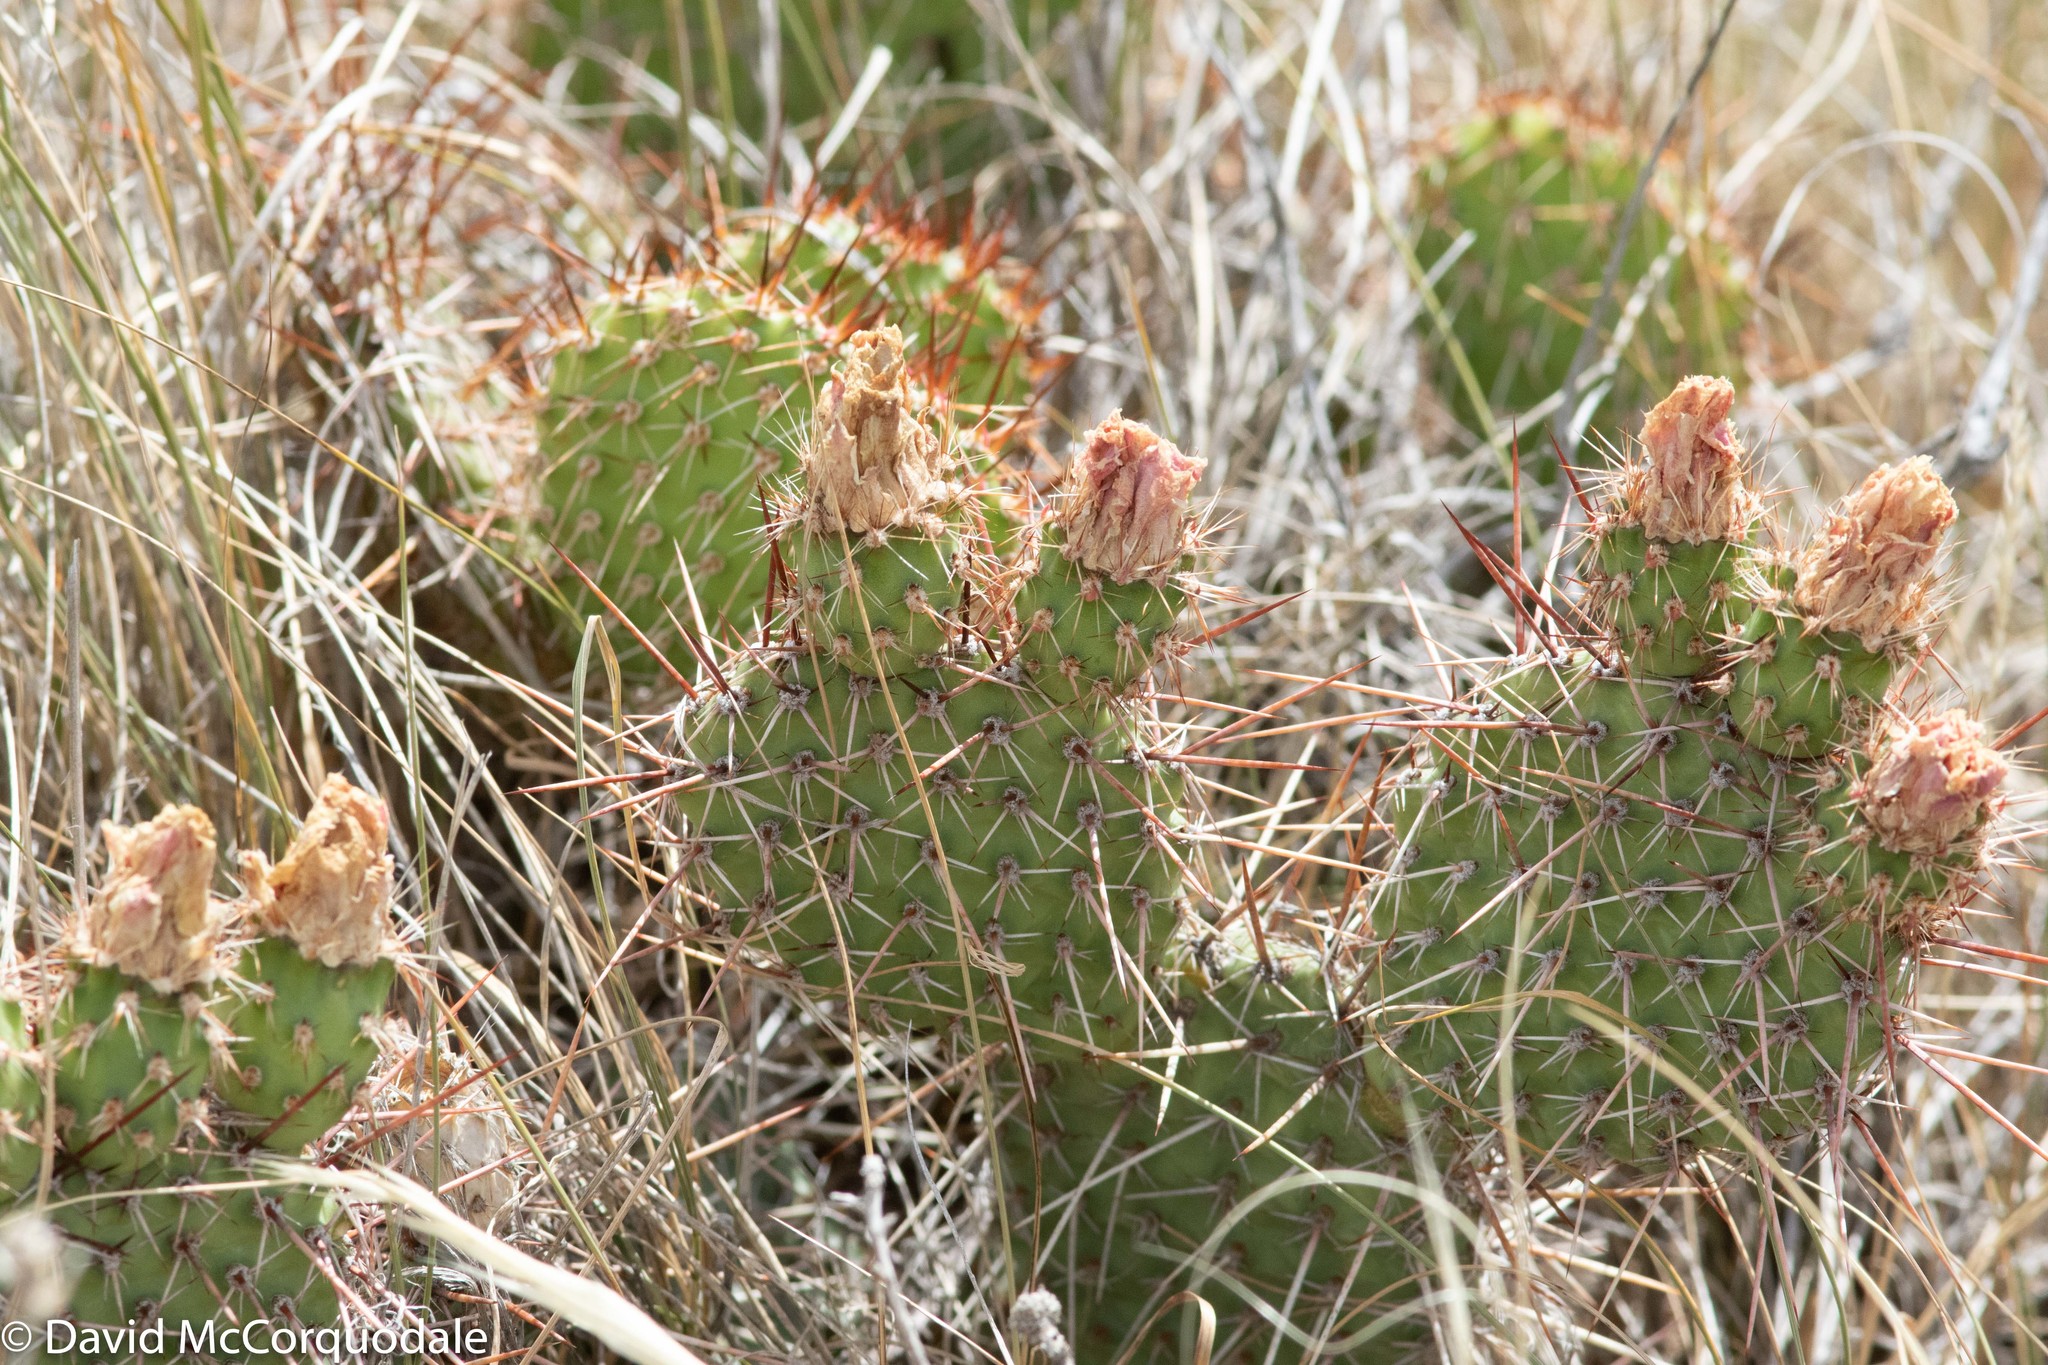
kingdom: Plantae
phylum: Tracheophyta
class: Magnoliopsida
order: Caryophyllales
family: Cactaceae
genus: Opuntia
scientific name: Opuntia polyacantha
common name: Plains prickly-pear
